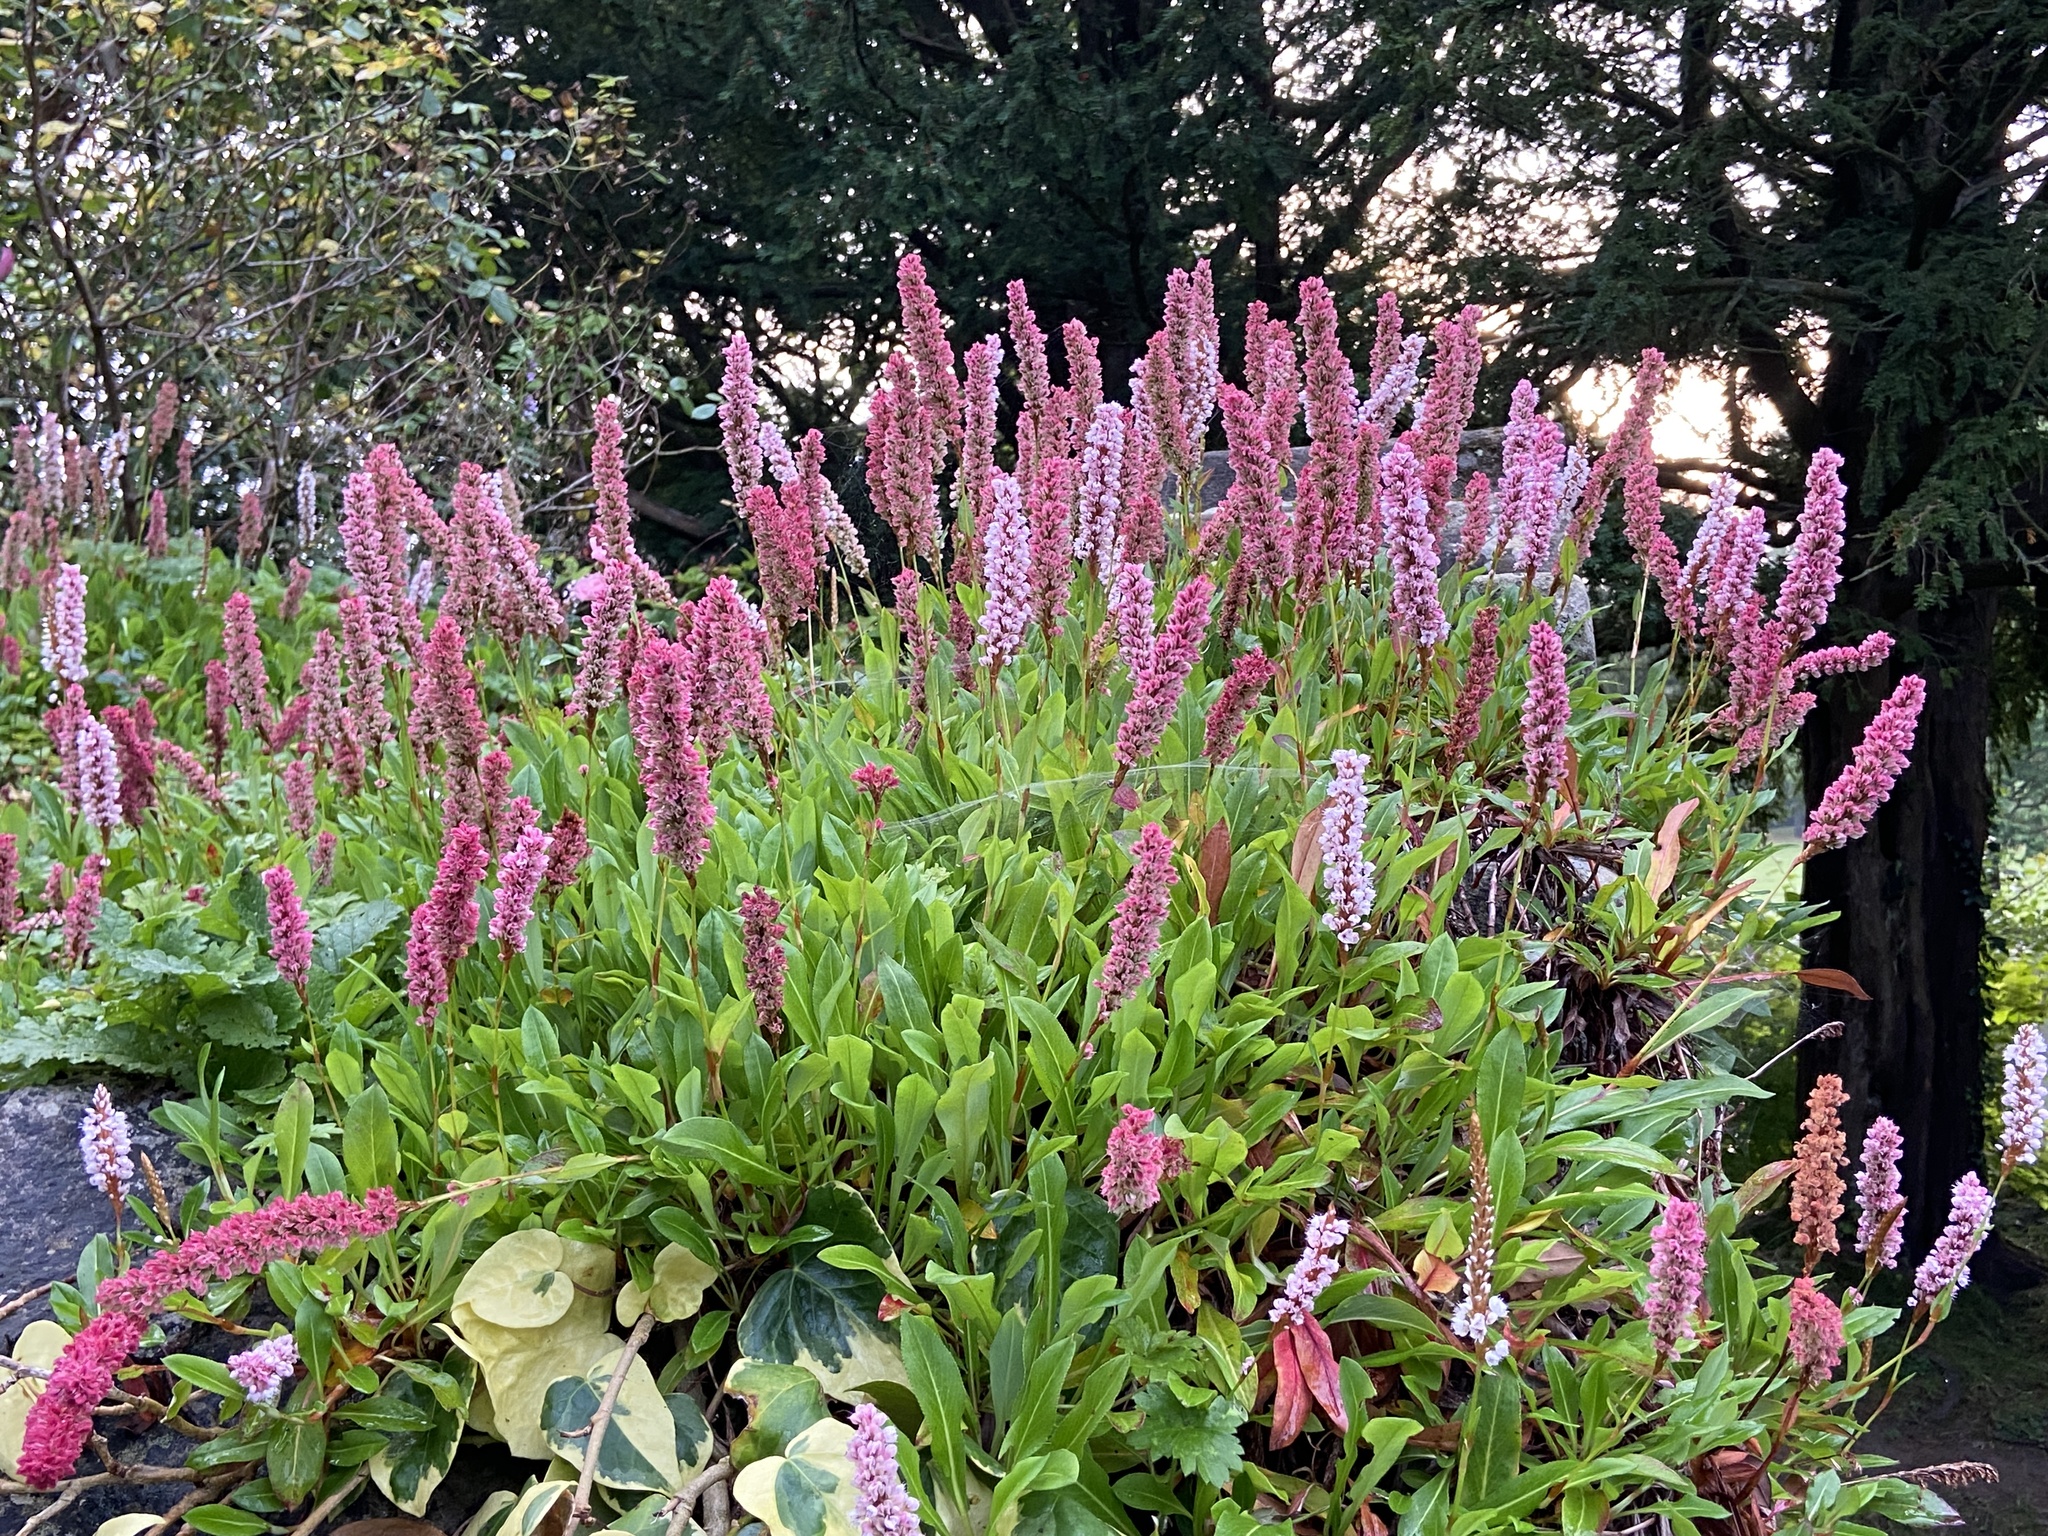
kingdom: Plantae
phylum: Tracheophyta
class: Magnoliopsida
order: Caryophyllales
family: Polygonaceae
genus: Bistorta
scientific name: Bistorta affinis
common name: Himalayan fleeceflower
